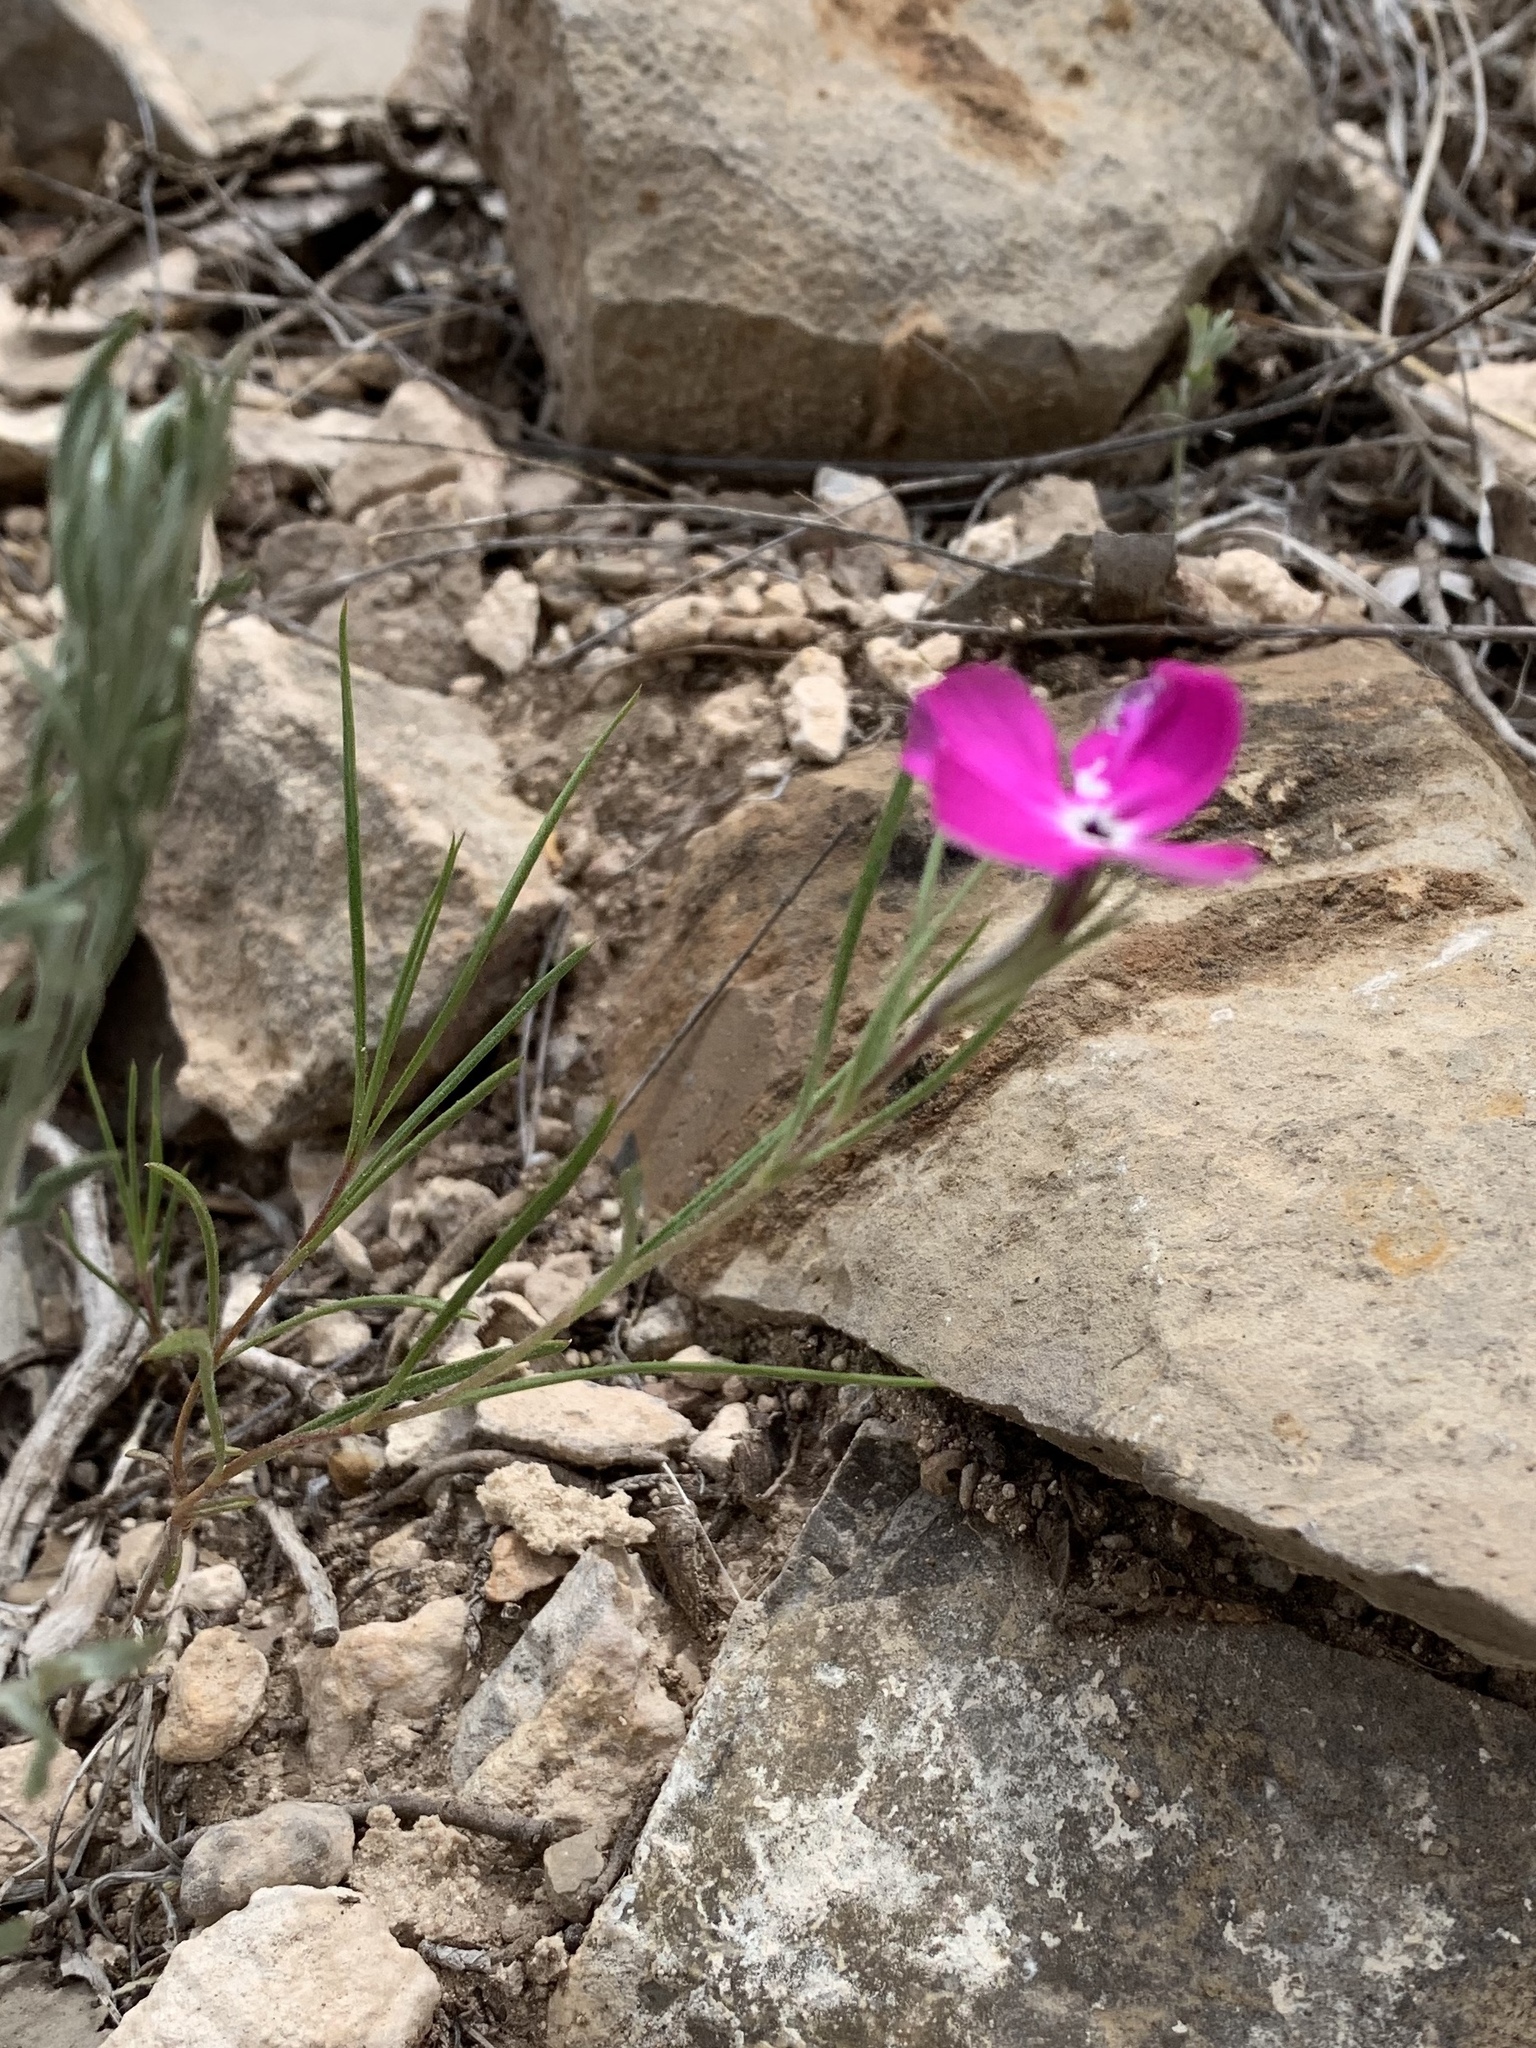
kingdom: Plantae
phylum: Tracheophyta
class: Magnoliopsida
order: Ericales
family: Polemoniaceae
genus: Phlox
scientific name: Phlox nana
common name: Santa fe phlox
